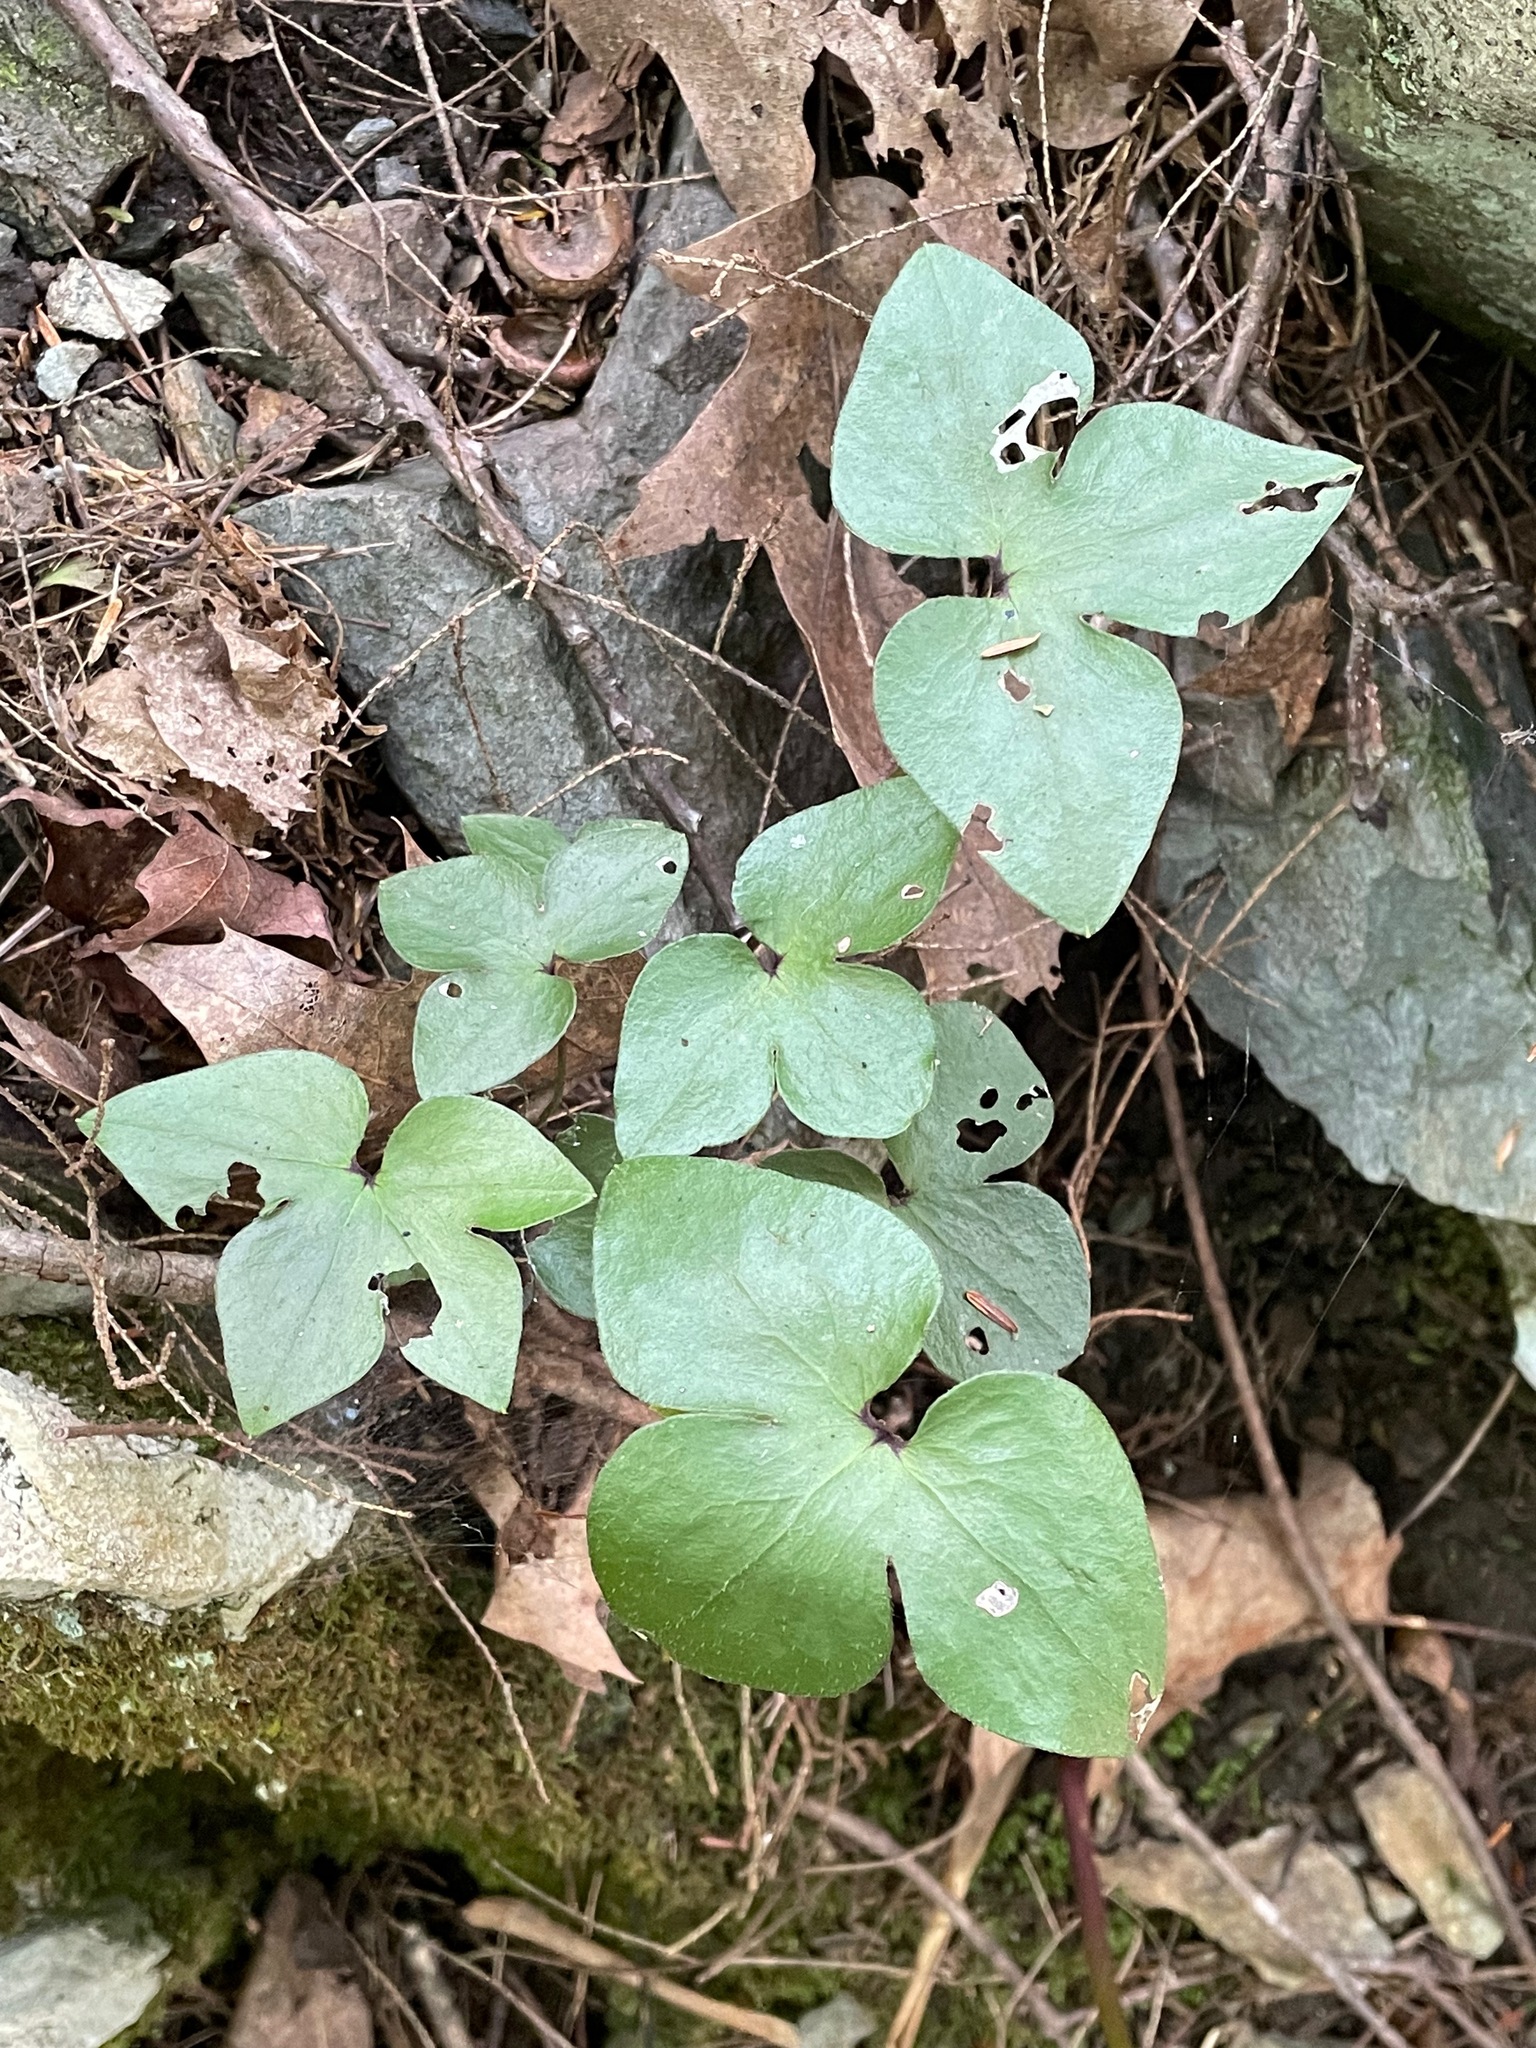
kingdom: Plantae
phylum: Tracheophyta
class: Magnoliopsida
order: Ranunculales
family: Ranunculaceae
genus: Hepatica
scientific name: Hepatica acutiloba
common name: Sharp-lobed hepatica
